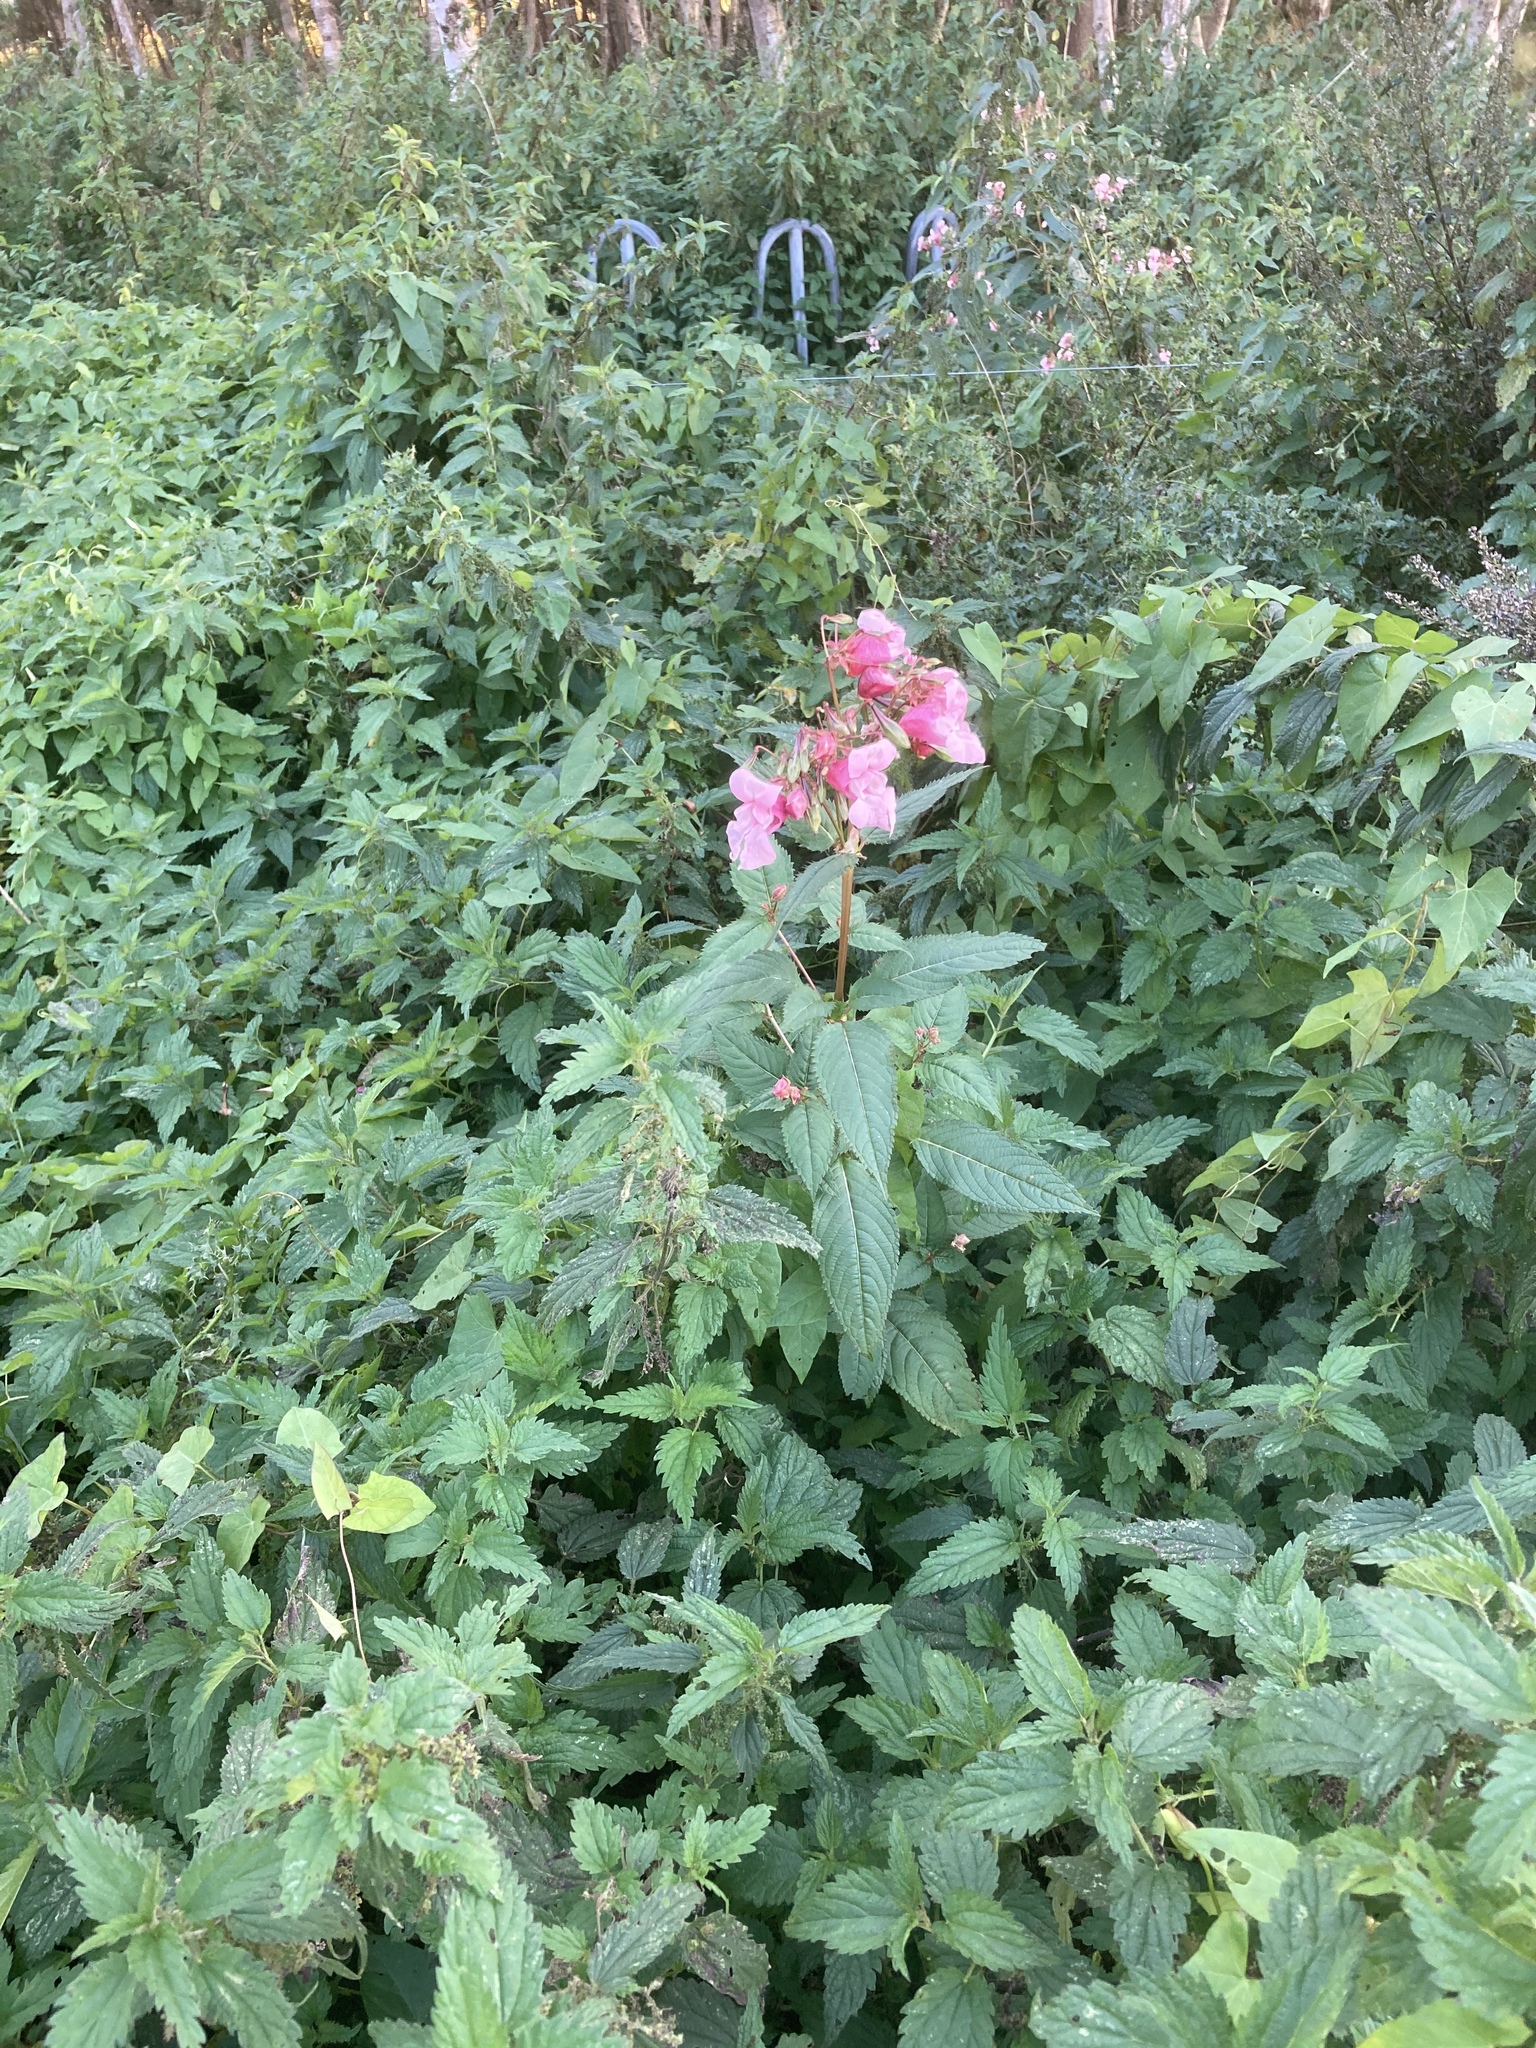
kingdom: Plantae
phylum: Tracheophyta
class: Magnoliopsida
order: Ericales
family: Balsaminaceae
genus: Impatiens
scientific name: Impatiens glandulifera
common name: Himalayan balsam
